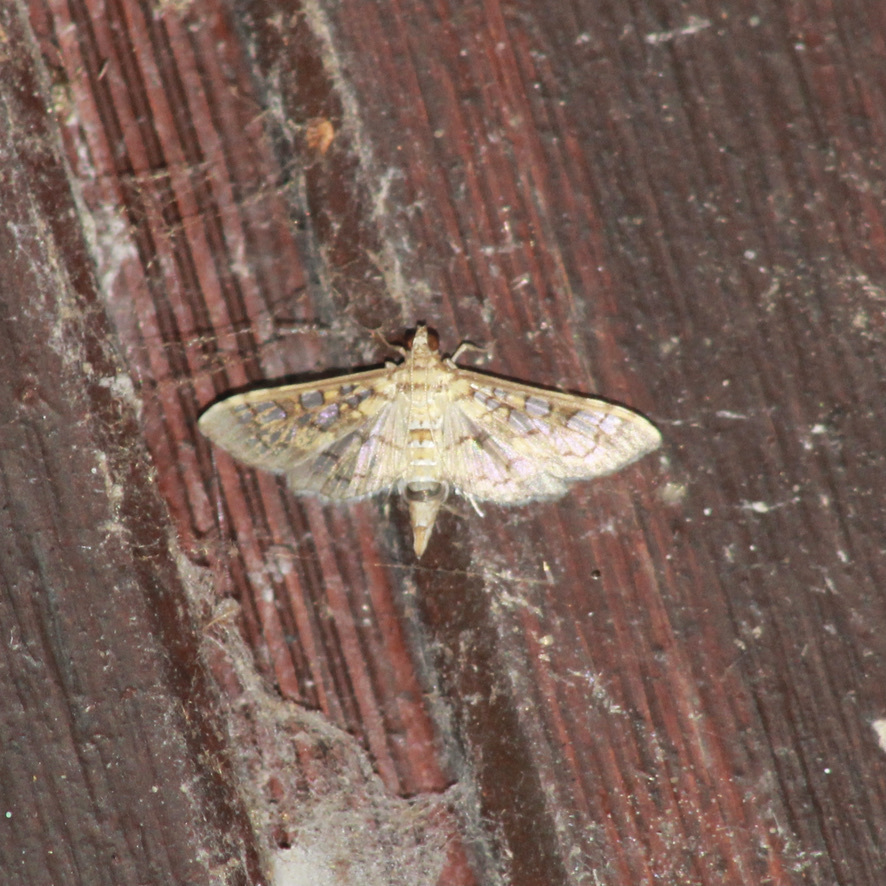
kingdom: Animalia
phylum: Arthropoda
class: Insecta
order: Lepidoptera
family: Crambidae
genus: Samea
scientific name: Samea ecclesialis
